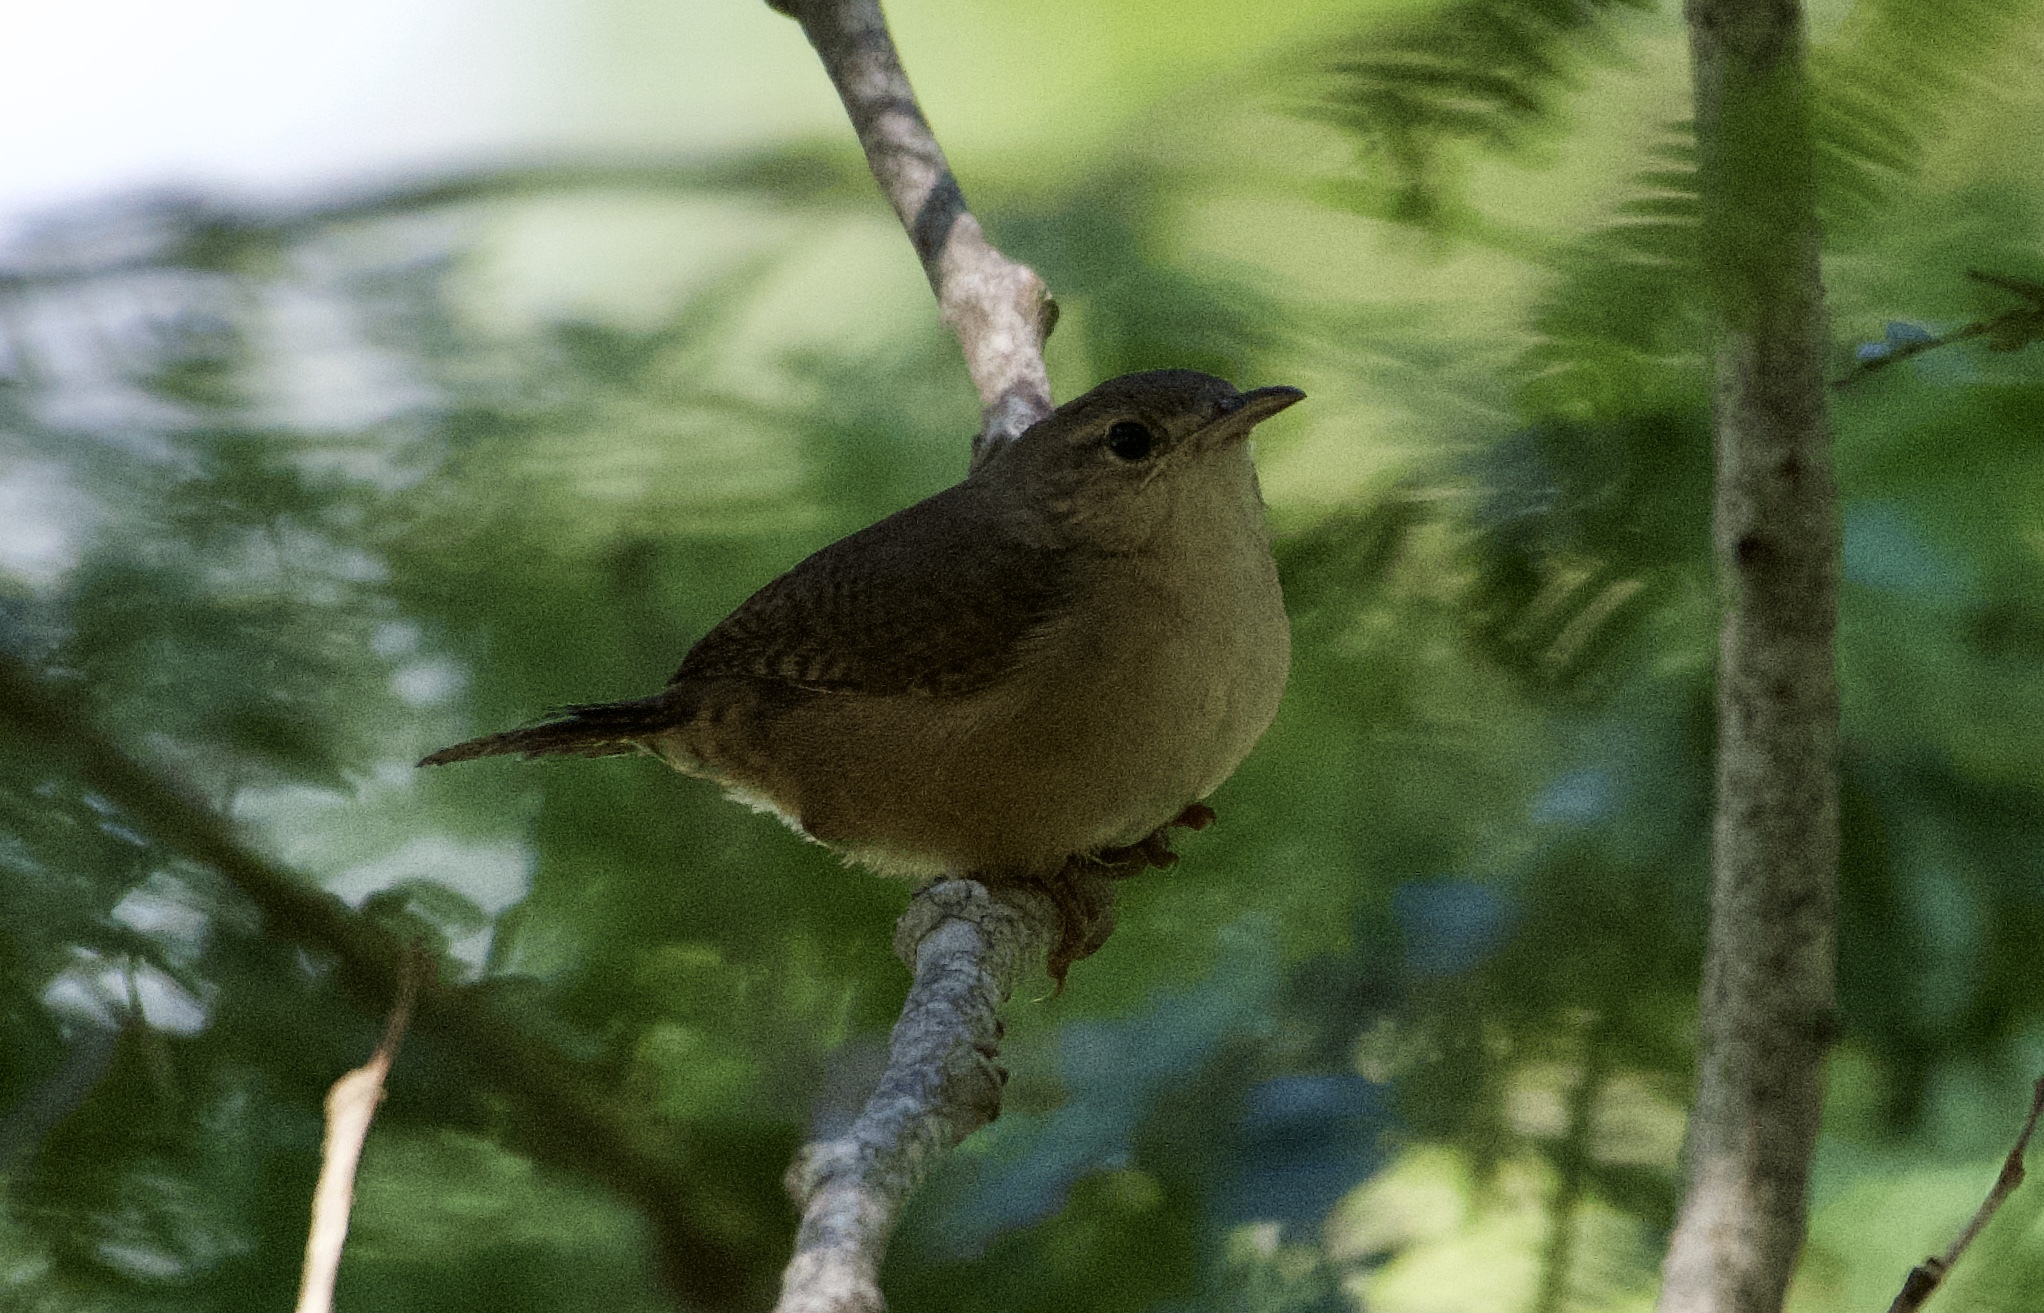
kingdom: Animalia
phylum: Chordata
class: Aves
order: Passeriformes
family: Troglodytidae
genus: Troglodytes
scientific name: Troglodytes aedon
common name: House wren
